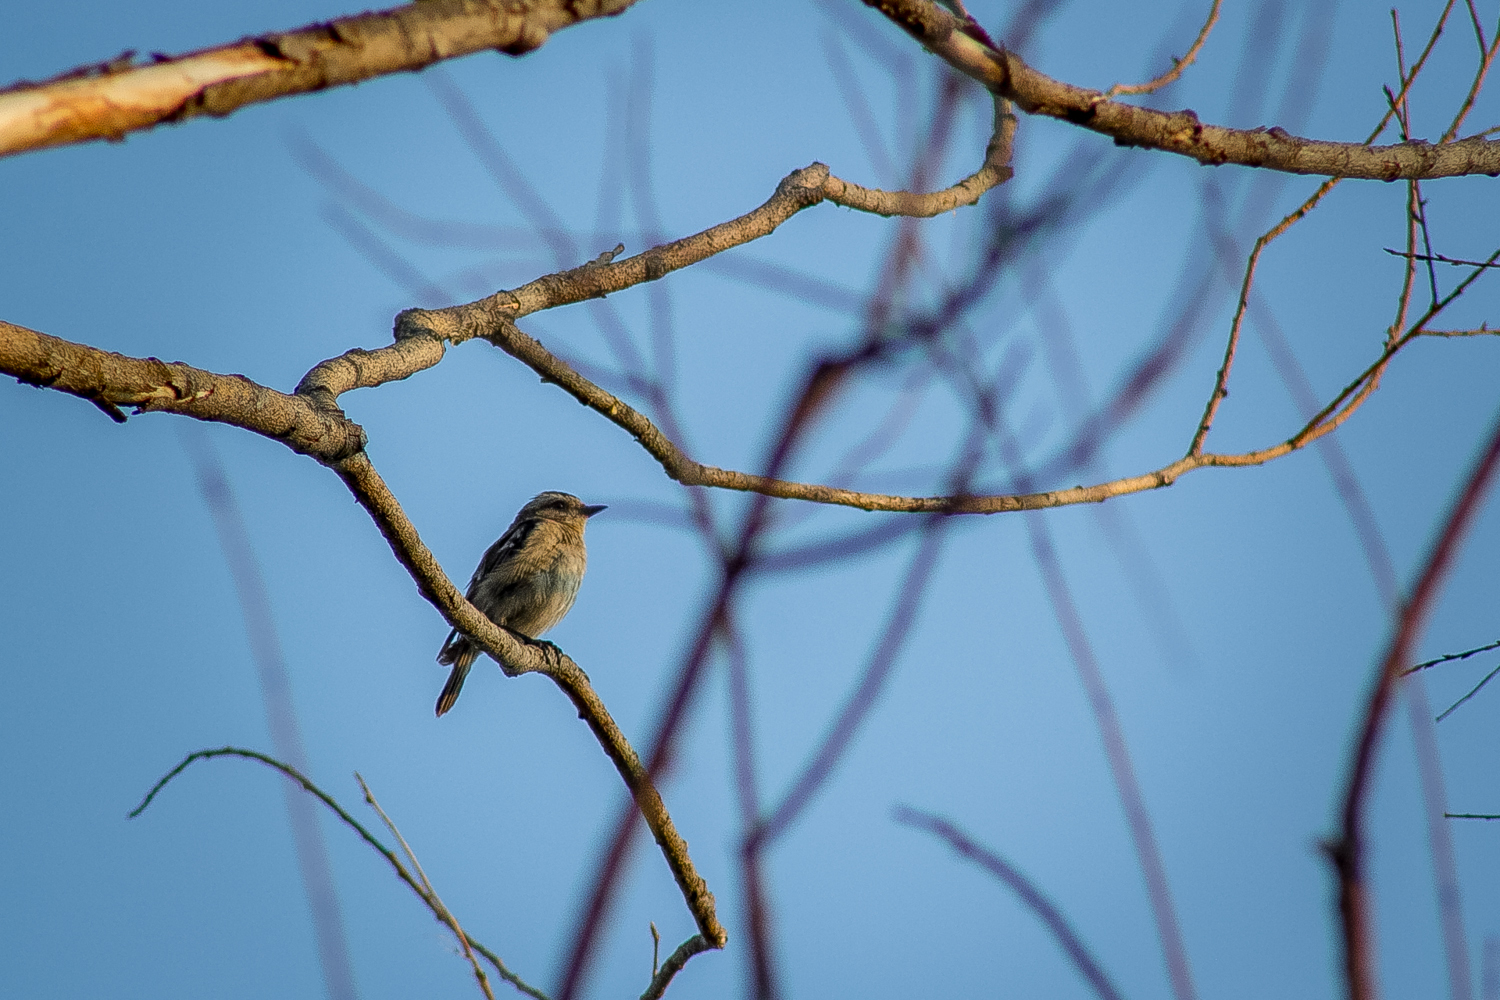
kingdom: Animalia
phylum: Chordata
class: Aves
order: Passeriformes
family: Muscicapidae
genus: Saxicola
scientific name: Saxicola rubetra
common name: Whinchat
